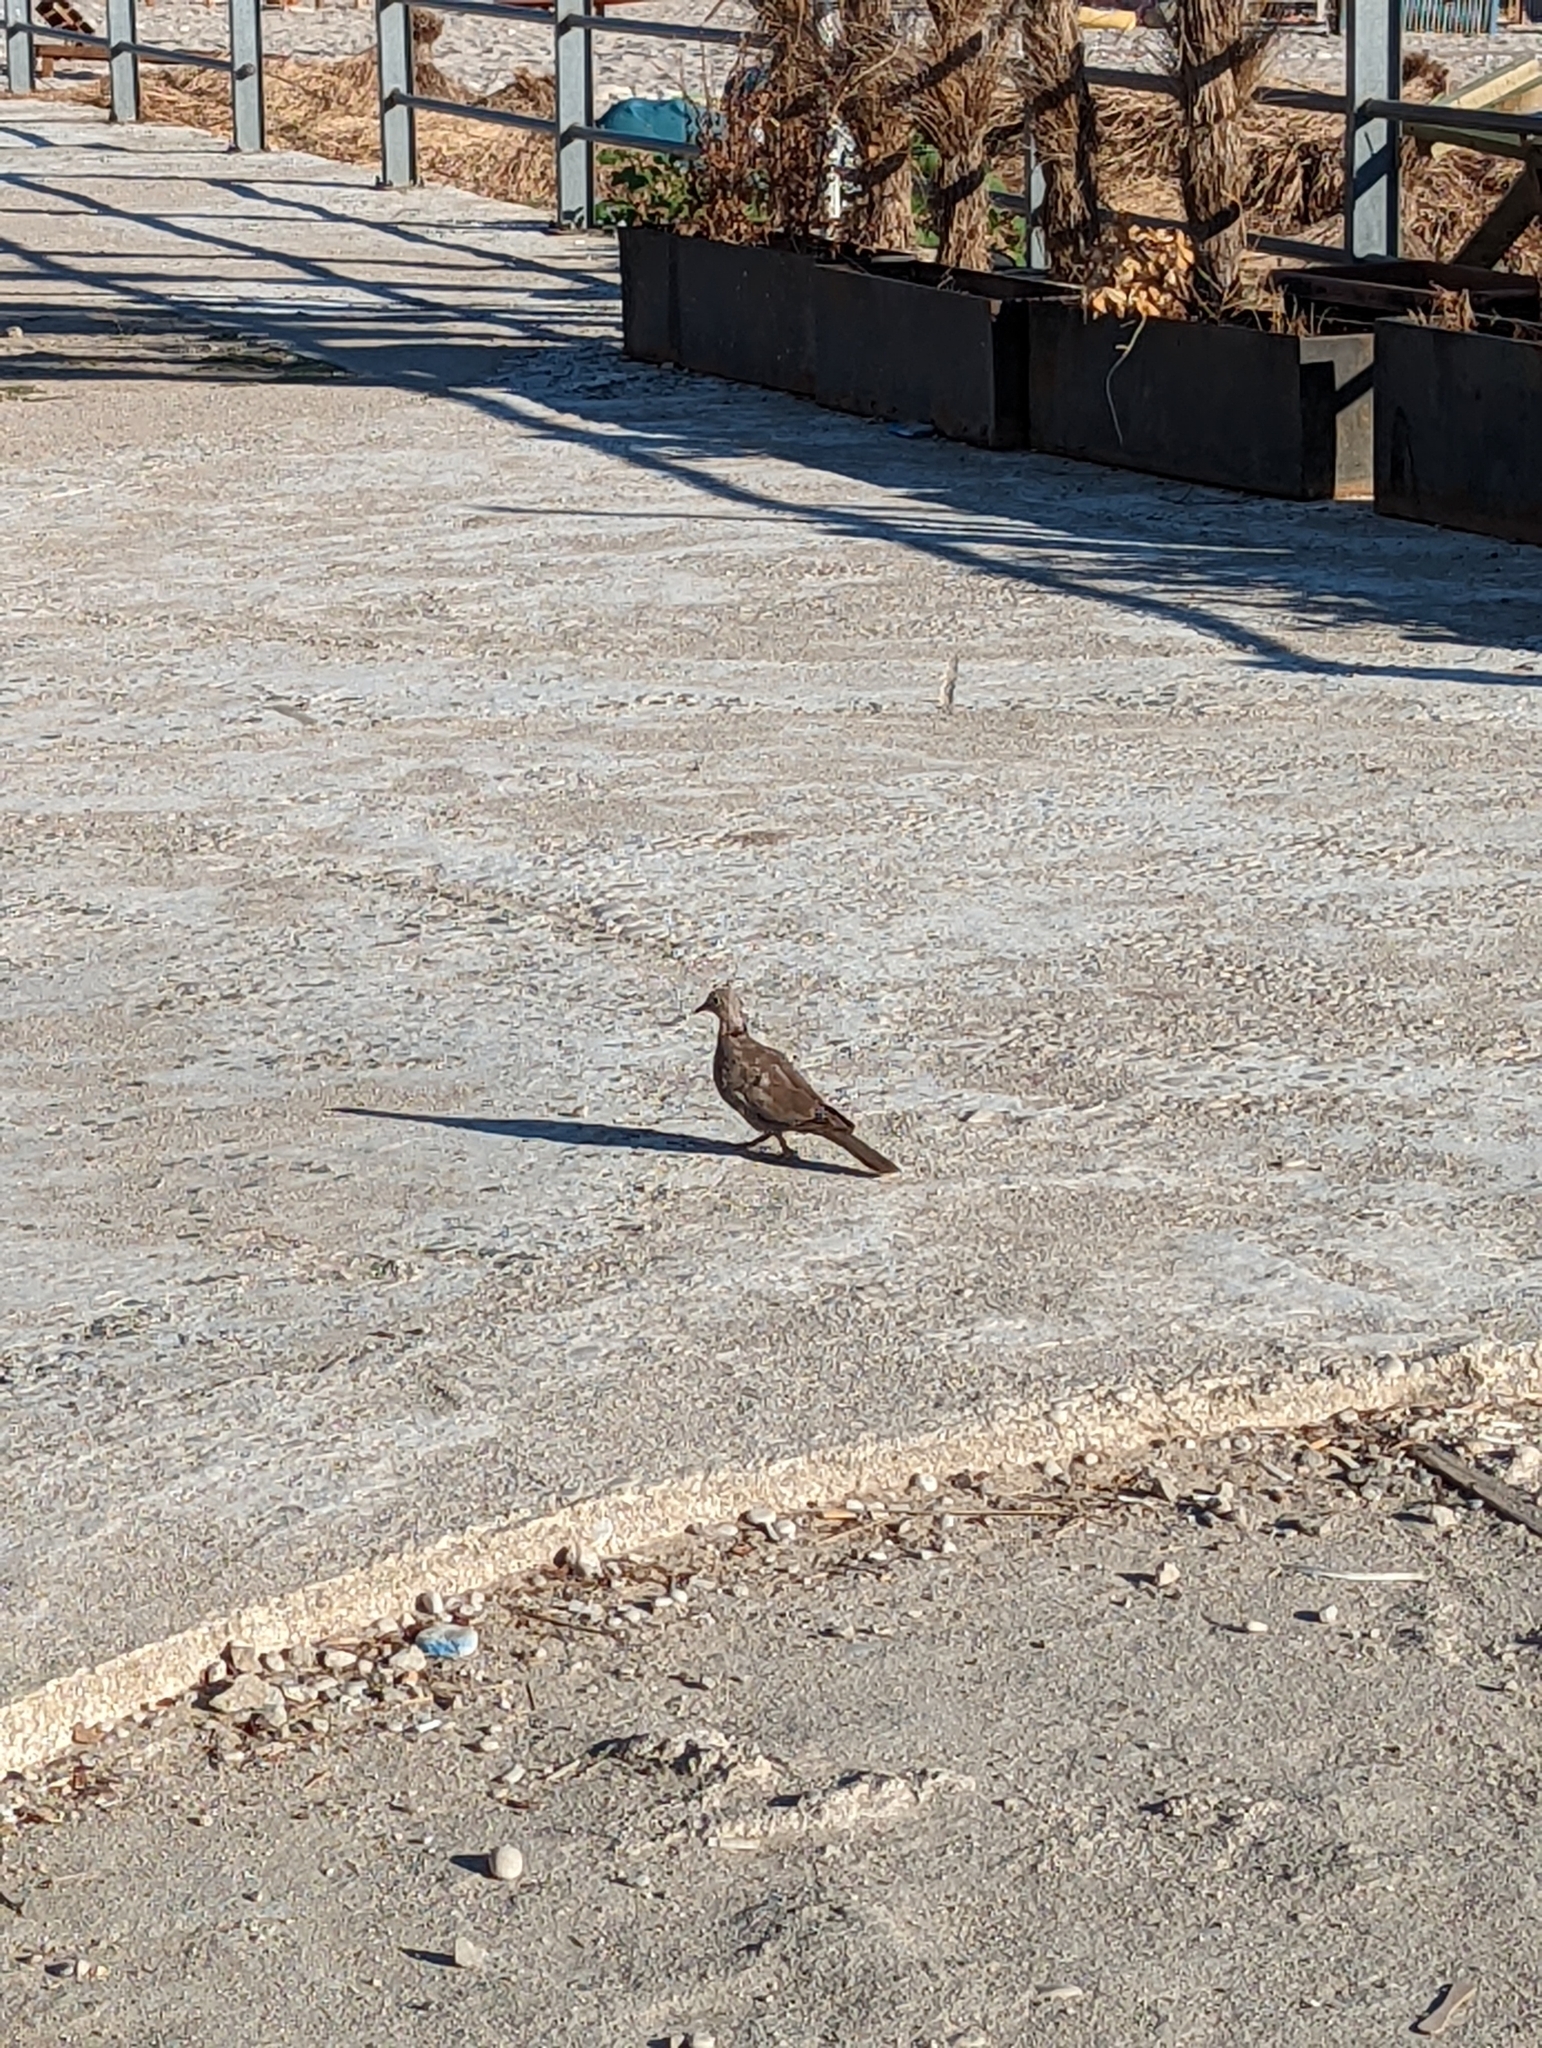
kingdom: Animalia
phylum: Chordata
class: Aves
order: Columbiformes
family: Columbidae
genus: Streptopelia
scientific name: Streptopelia decaocto
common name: Eurasian collared dove
